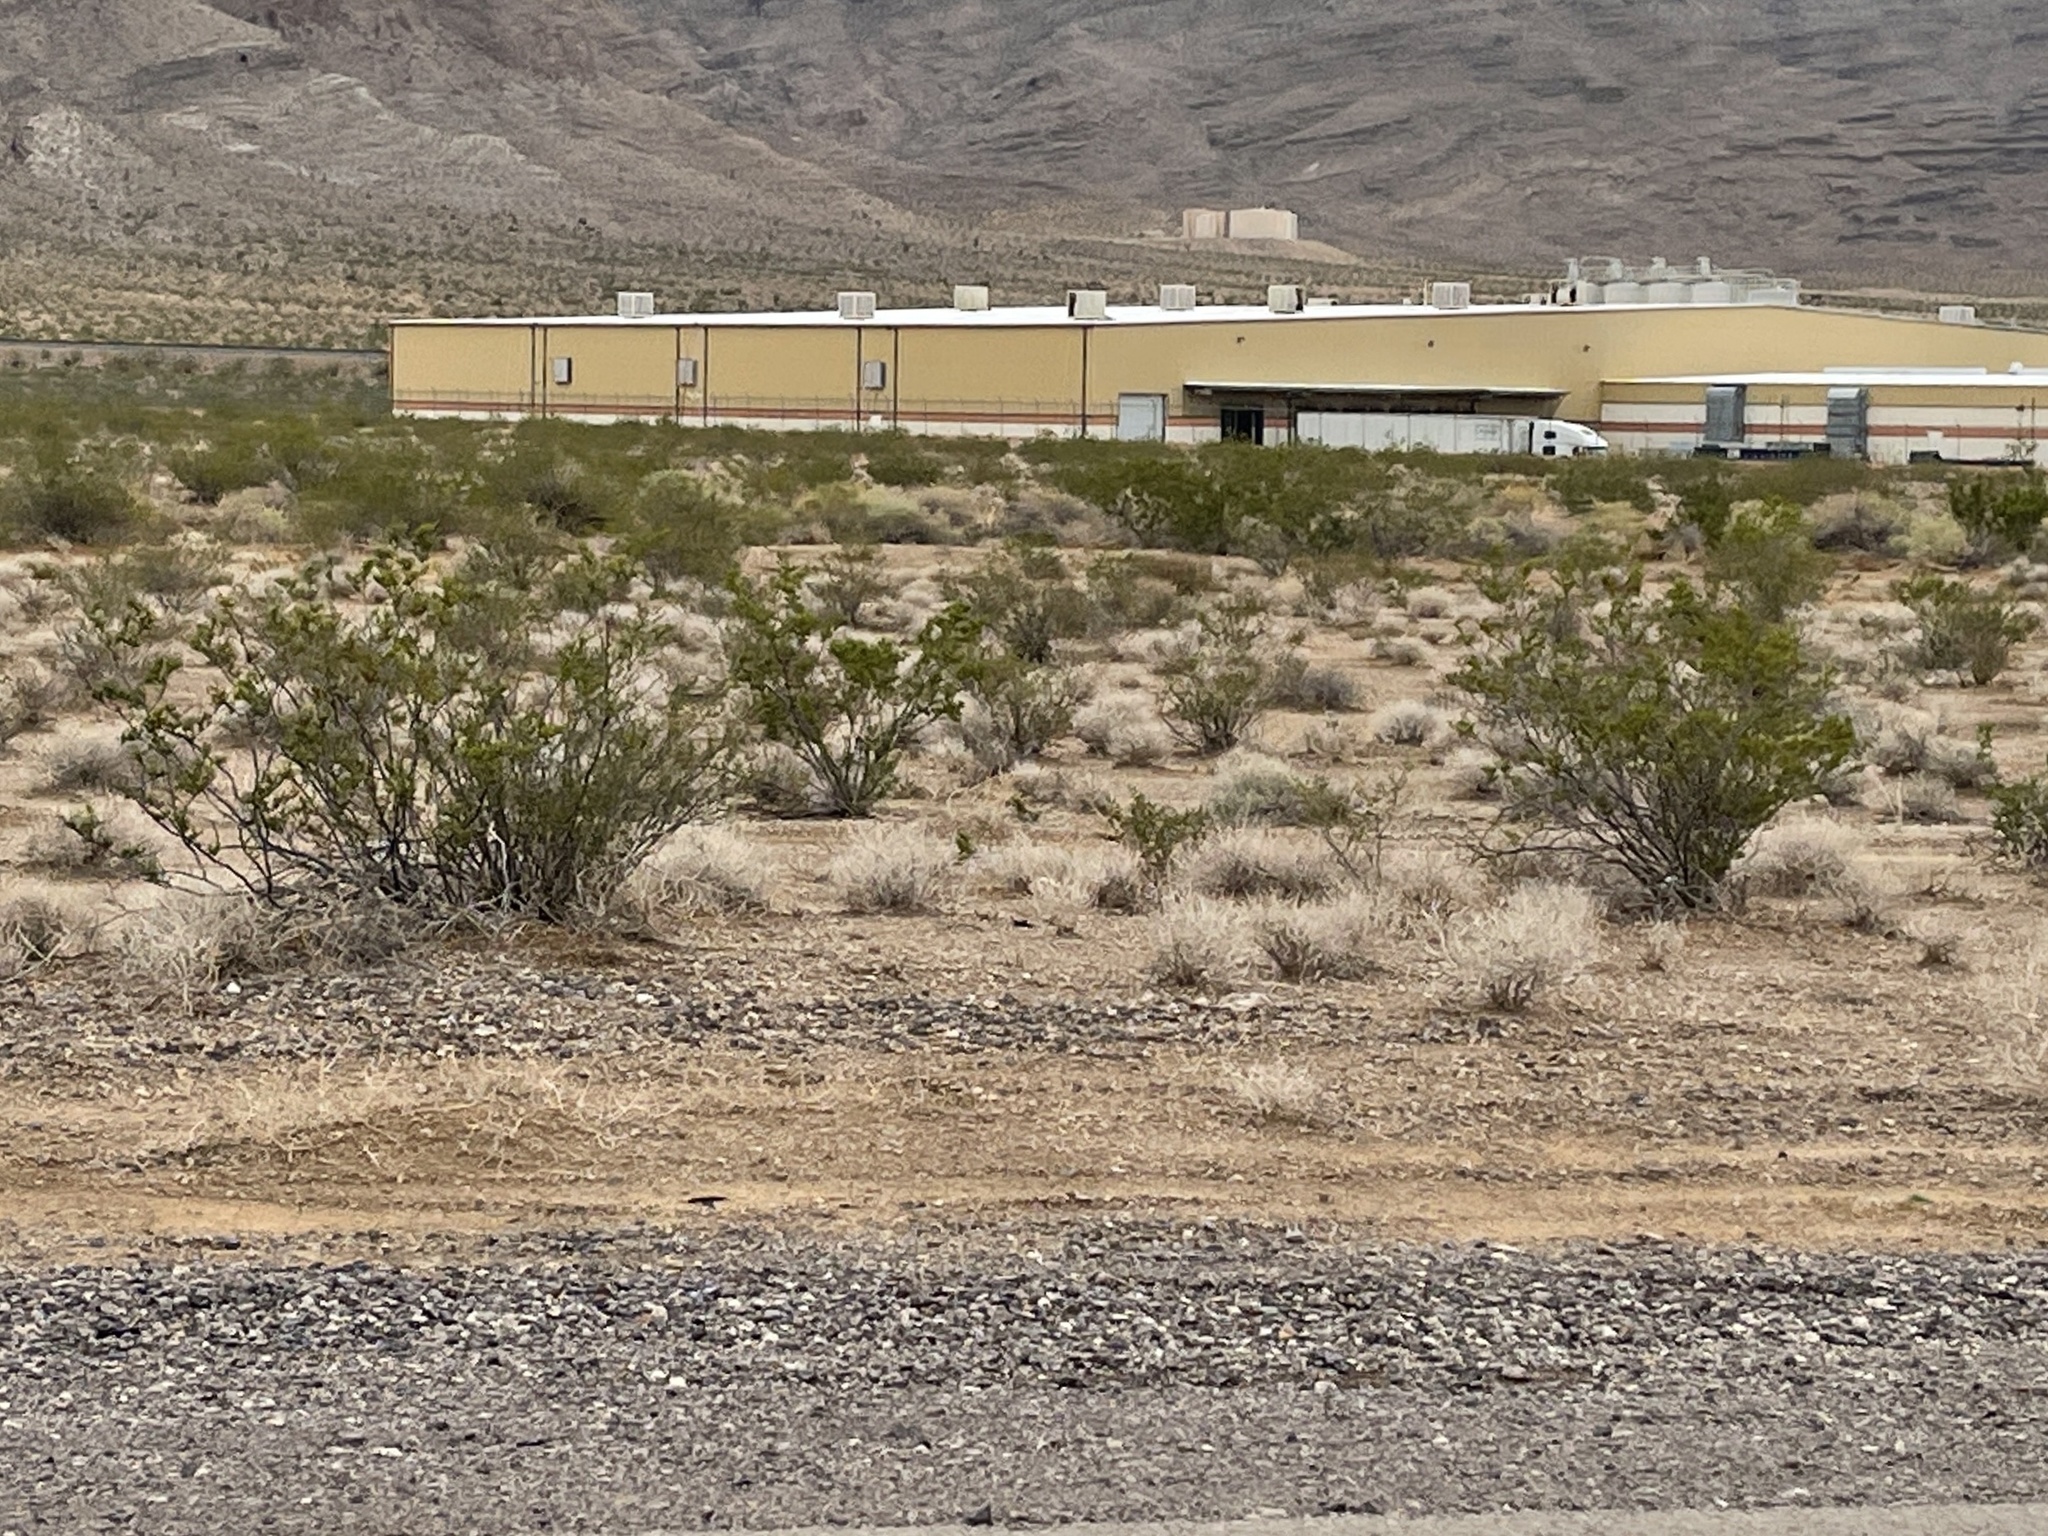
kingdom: Plantae
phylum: Tracheophyta
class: Magnoliopsida
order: Zygophyllales
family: Zygophyllaceae
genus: Larrea
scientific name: Larrea tridentata
